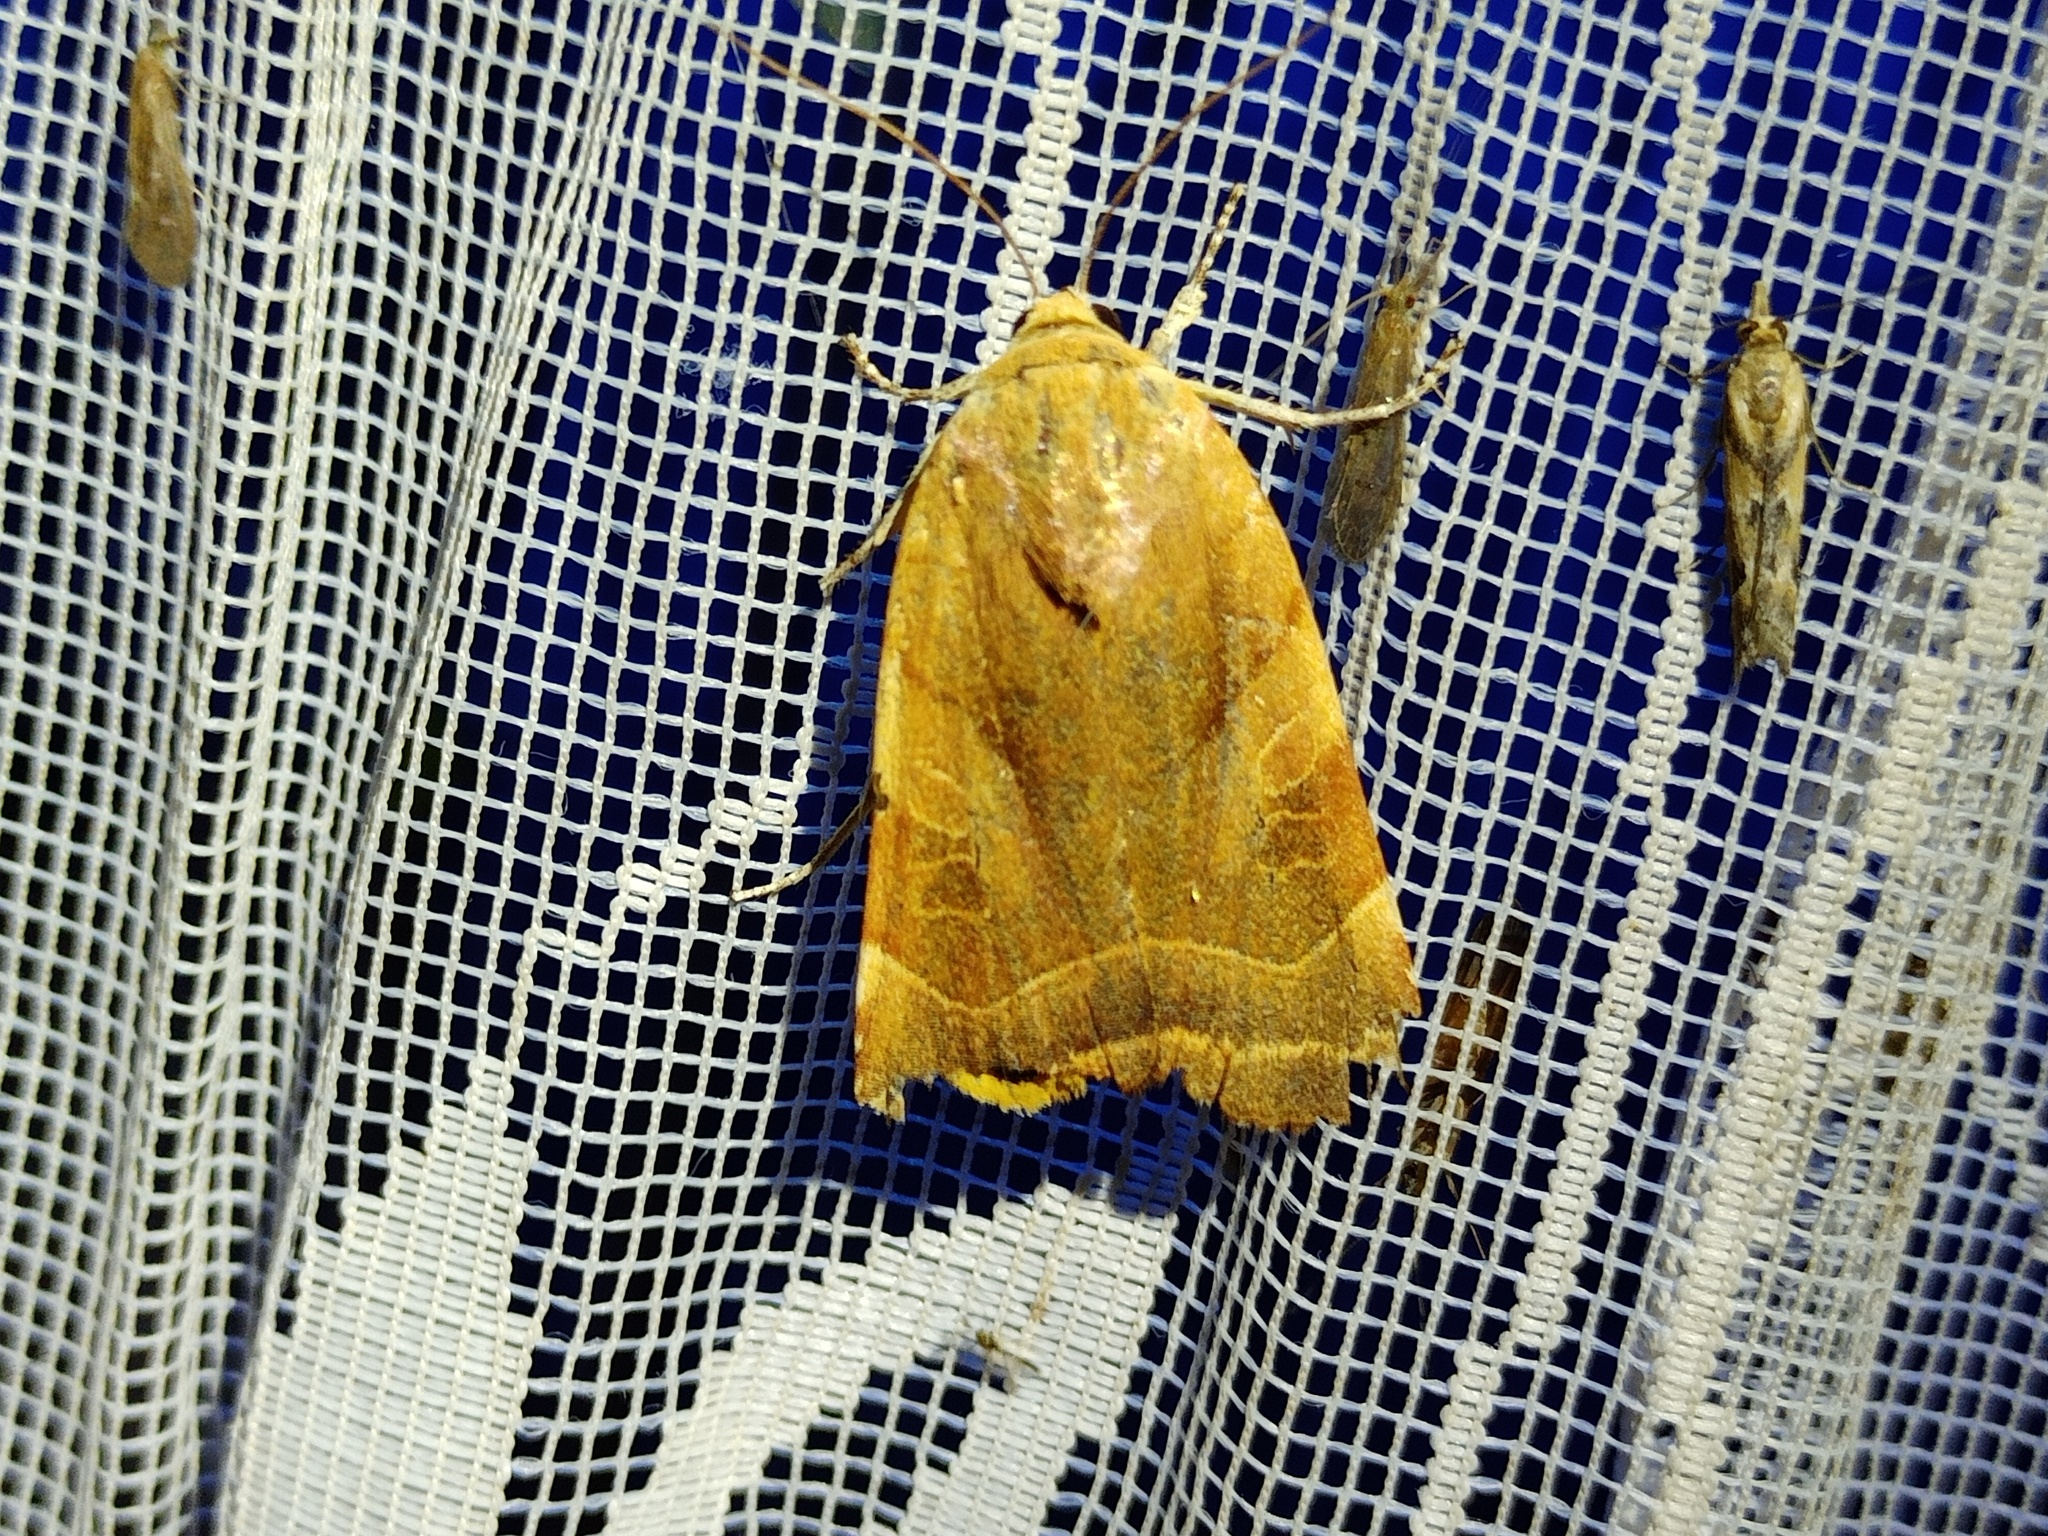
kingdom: Animalia
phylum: Arthropoda
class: Insecta
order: Lepidoptera
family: Noctuidae
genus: Noctua
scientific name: Noctua fimbriata
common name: Broad-bordered yellow underwing
